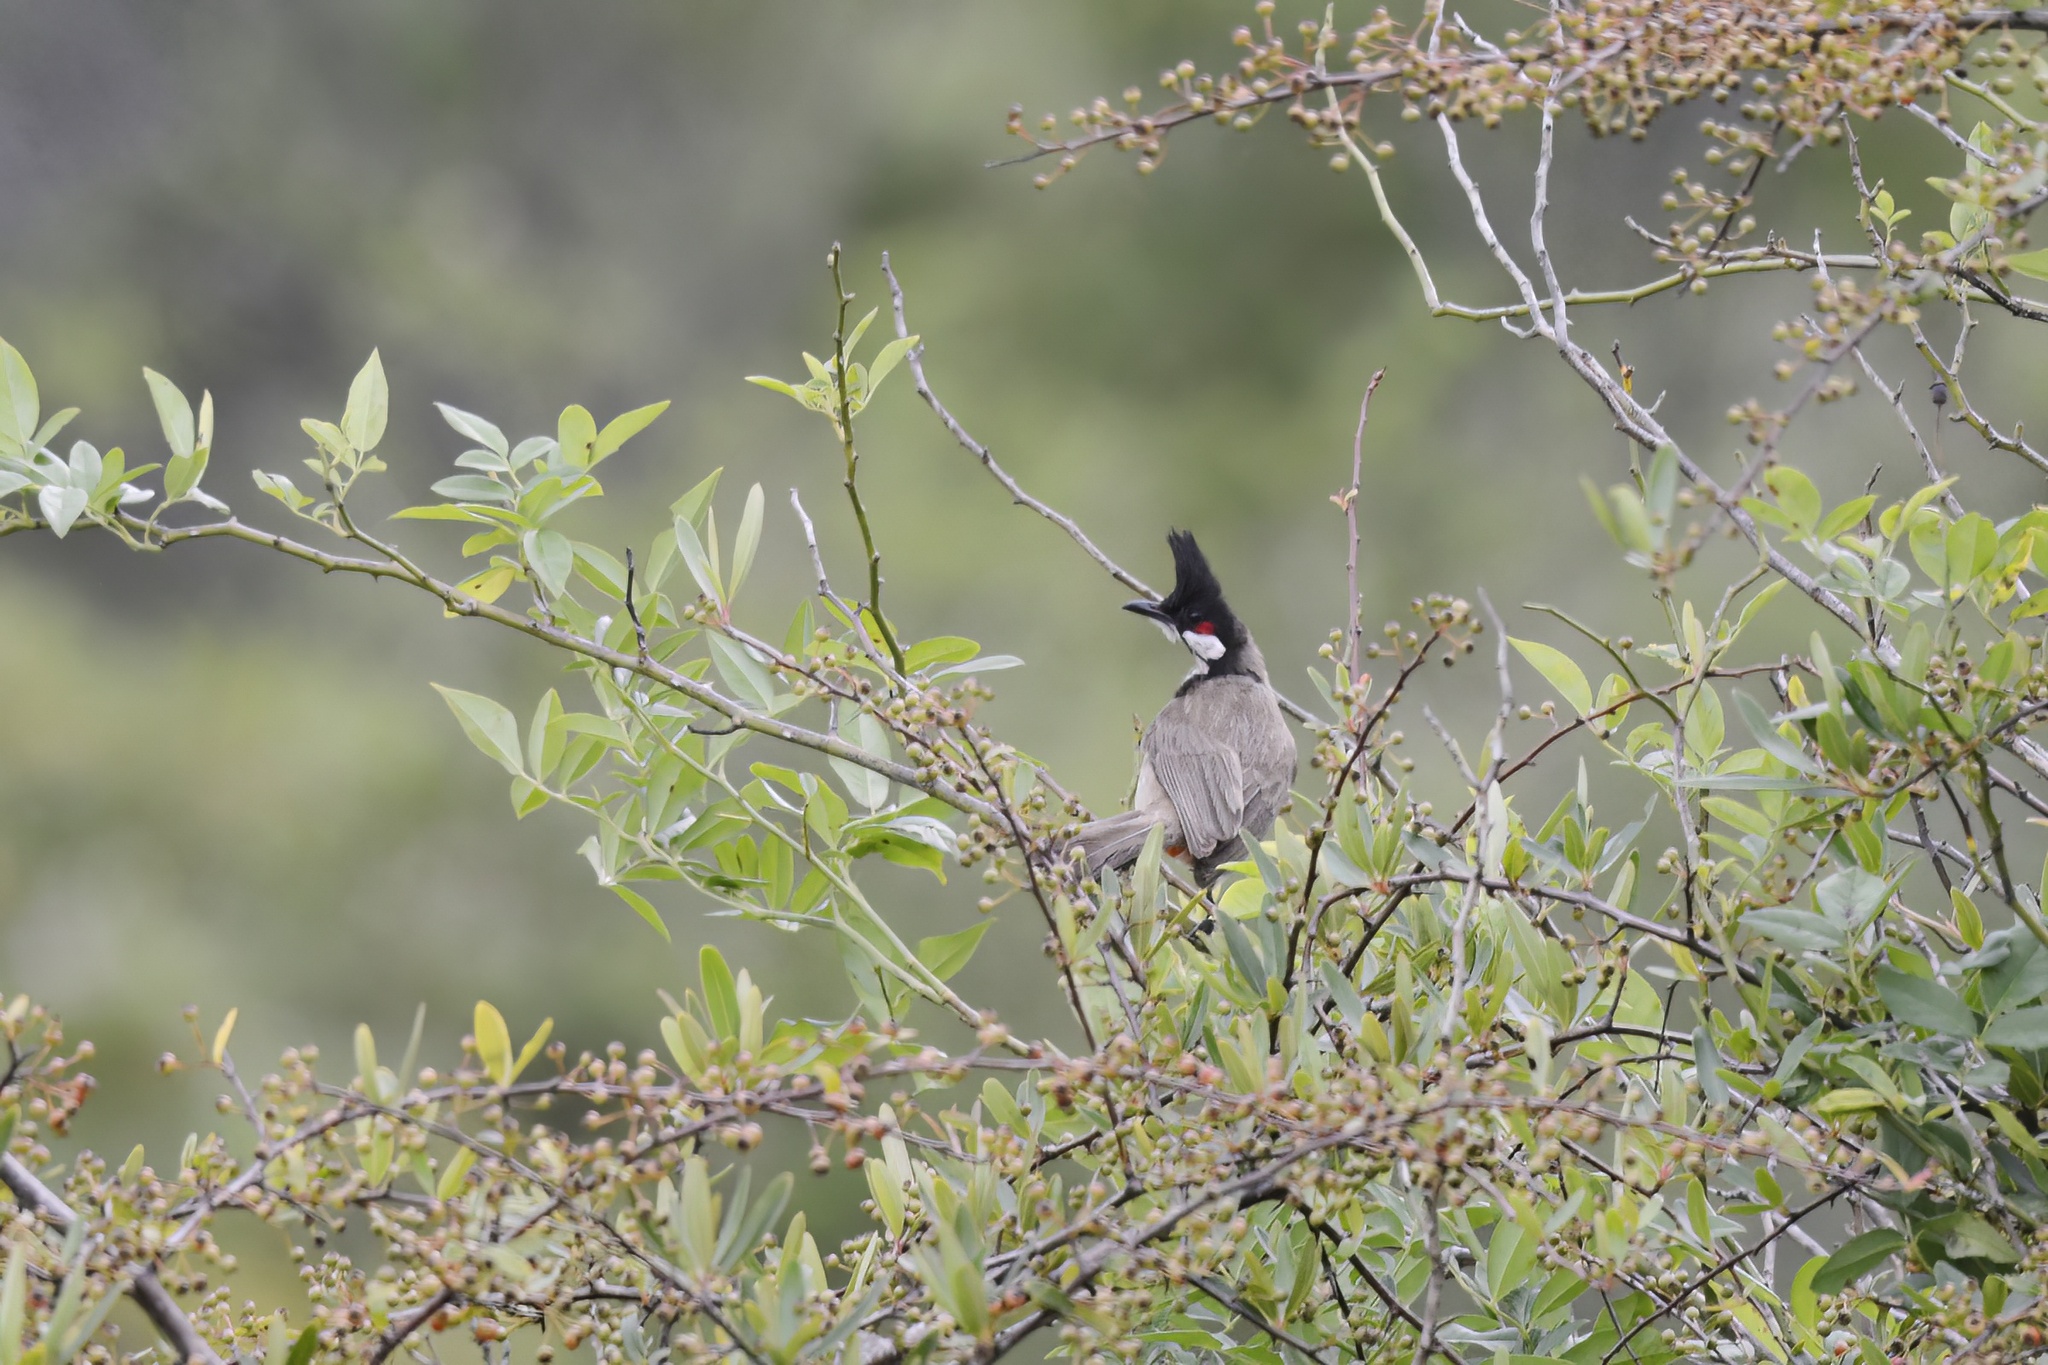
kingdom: Animalia
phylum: Chordata
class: Aves
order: Passeriformes
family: Pycnonotidae
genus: Pycnonotus
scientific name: Pycnonotus jocosus
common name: Red-whiskered bulbul
